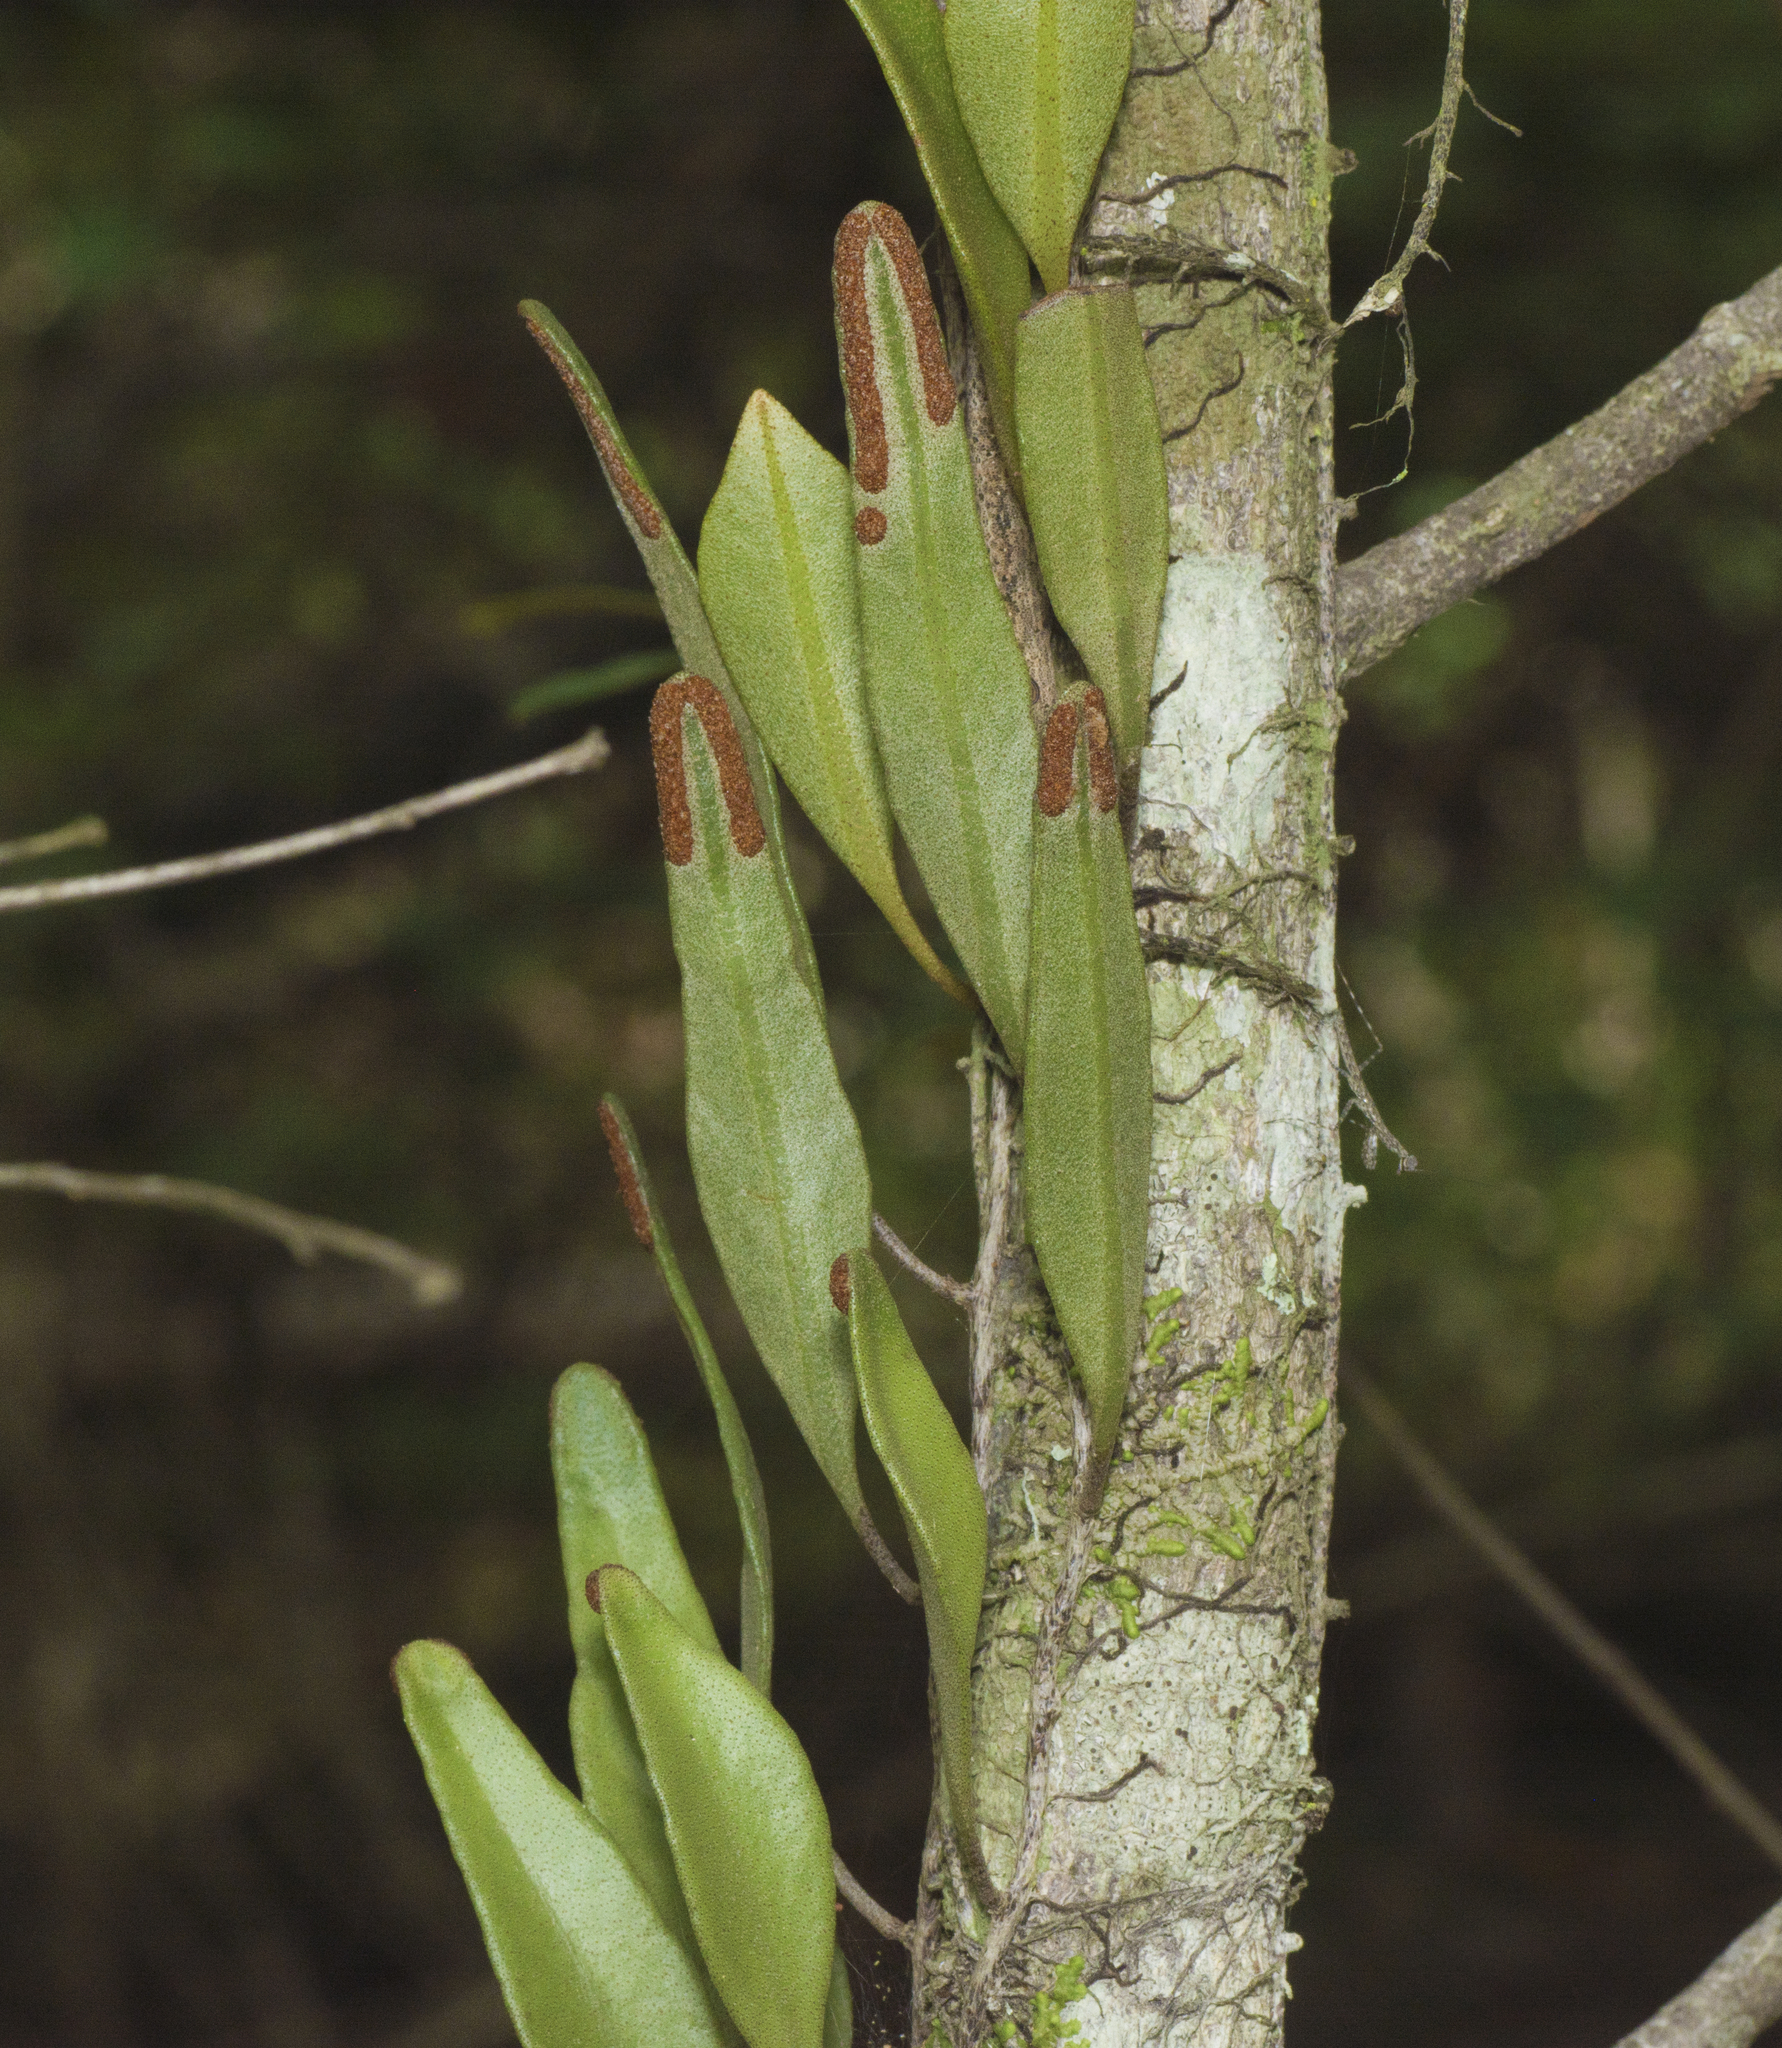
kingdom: Plantae
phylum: Tracheophyta
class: Polypodiopsida
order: Polypodiales
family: Polypodiaceae
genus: Pyrrosia
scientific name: Pyrrosia confluens
